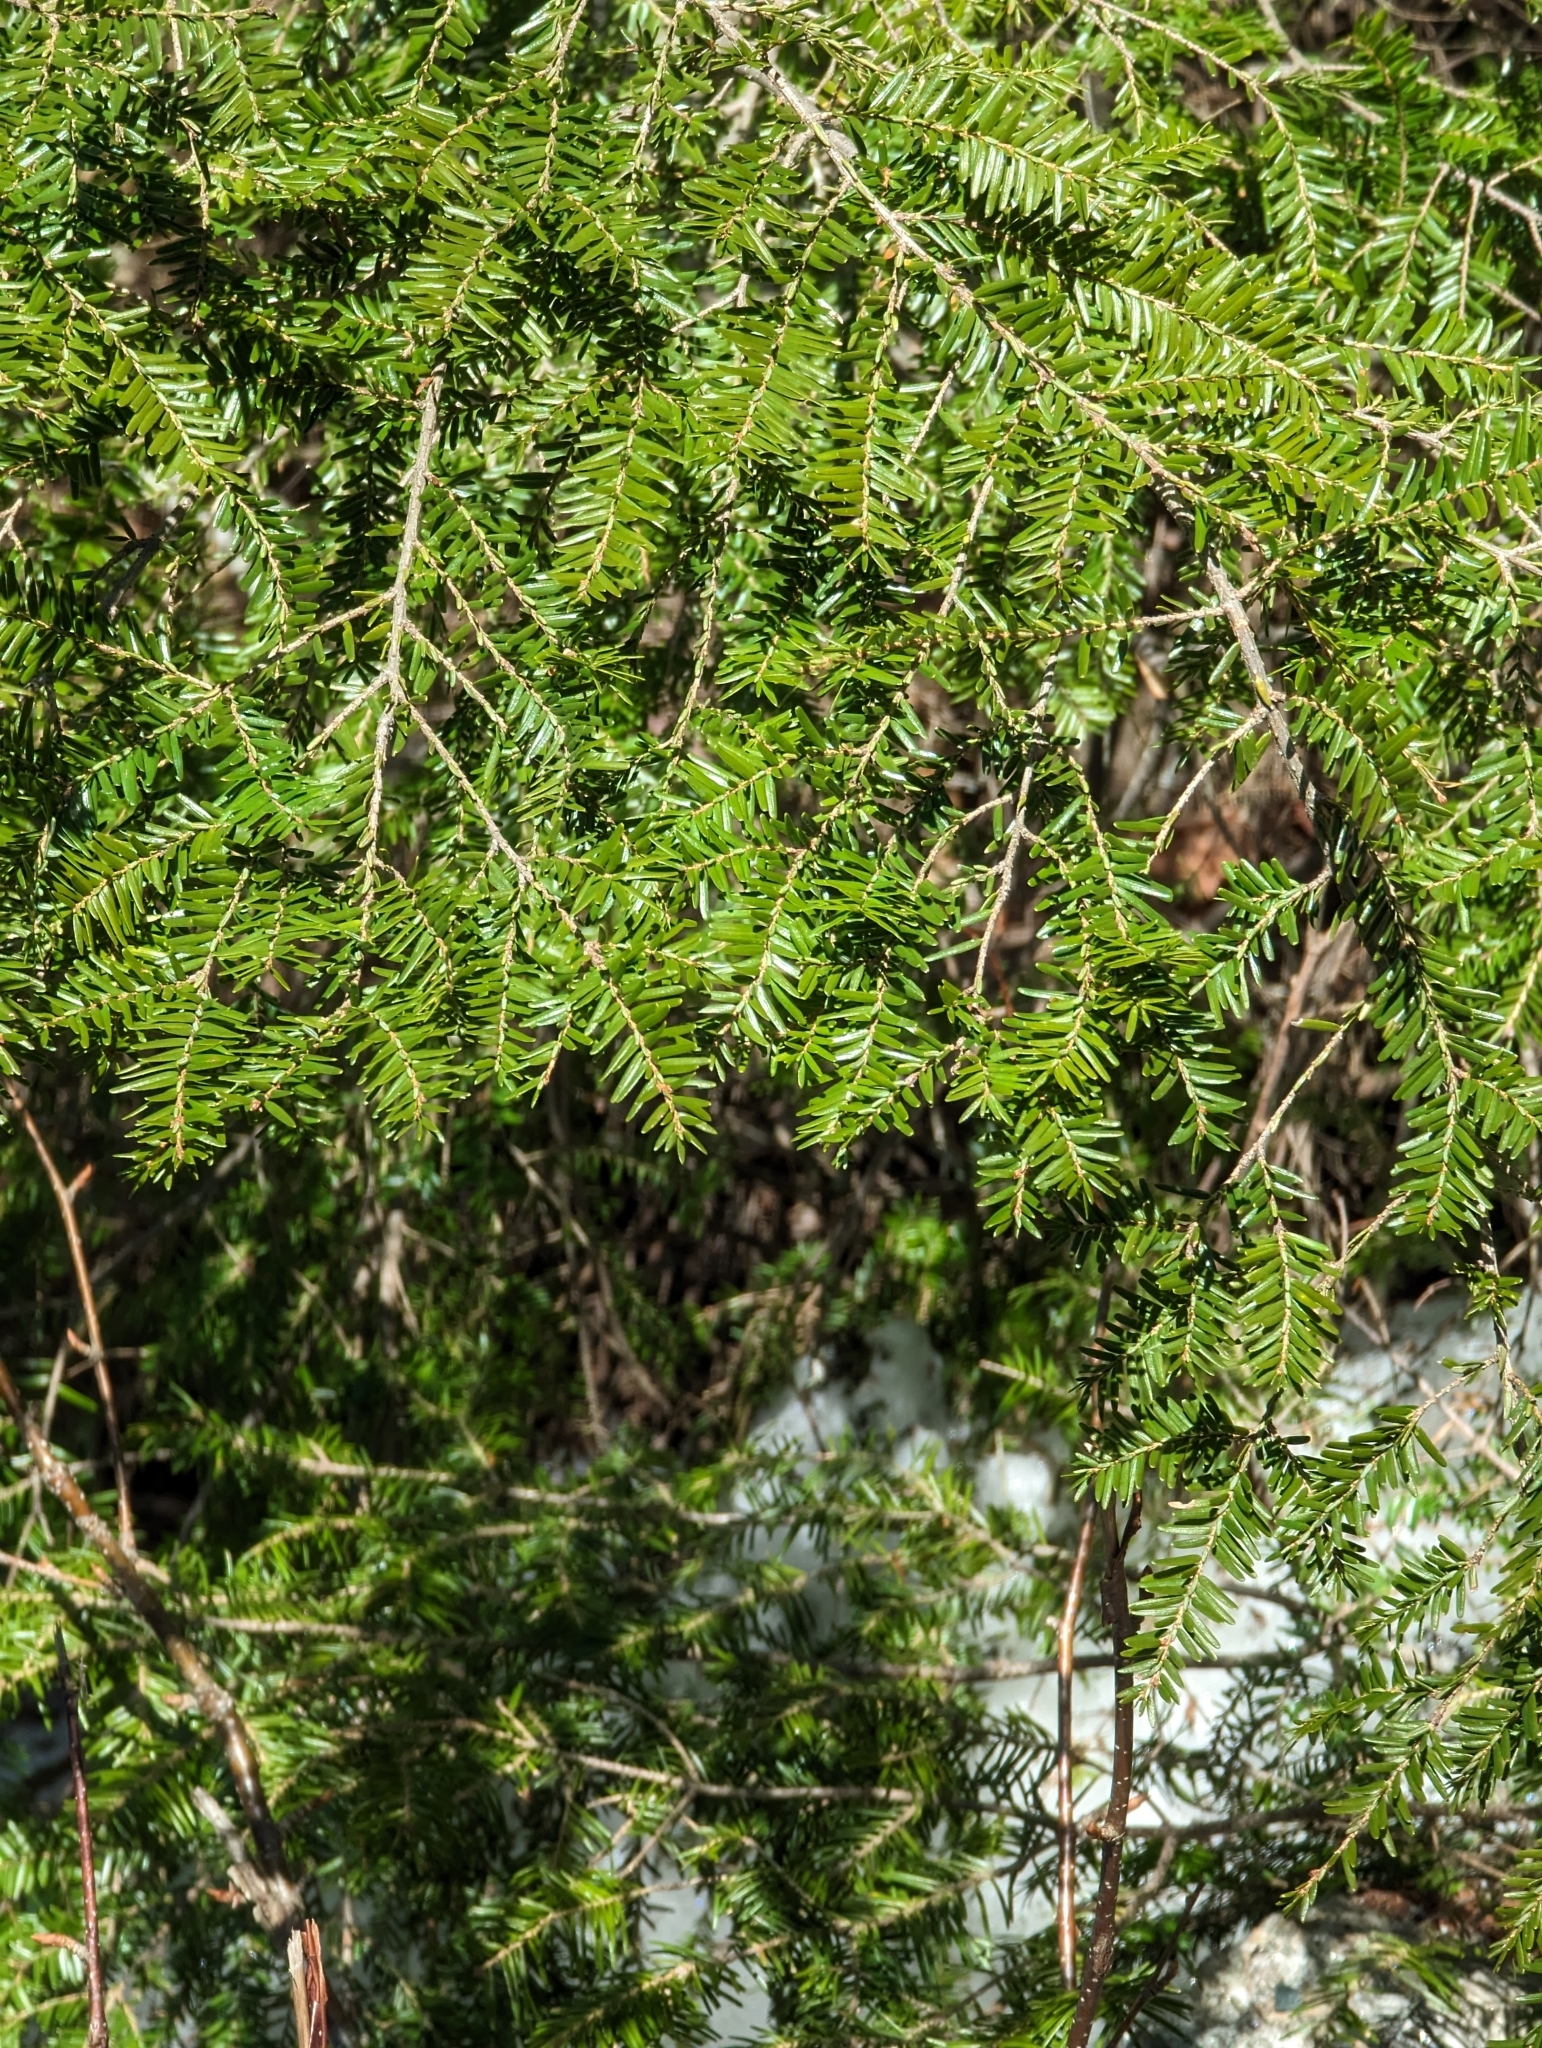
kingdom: Plantae
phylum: Tracheophyta
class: Pinopsida
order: Pinales
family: Pinaceae
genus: Tsuga
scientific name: Tsuga canadensis
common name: Eastern hemlock
